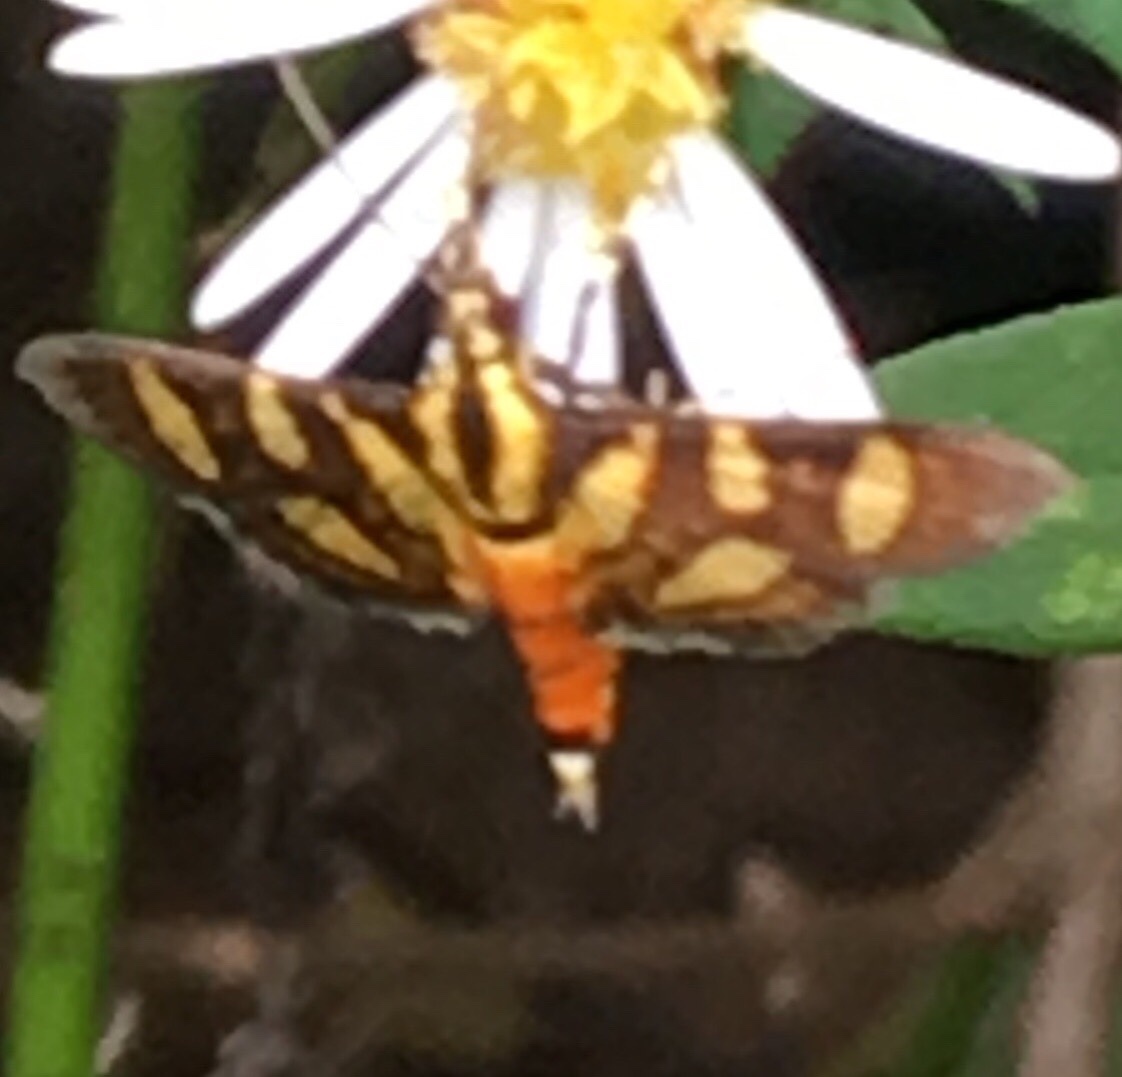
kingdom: Animalia
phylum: Arthropoda
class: Insecta
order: Lepidoptera
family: Crambidae
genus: Syngamia
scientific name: Syngamia florella
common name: Orange-spotted flower moth
